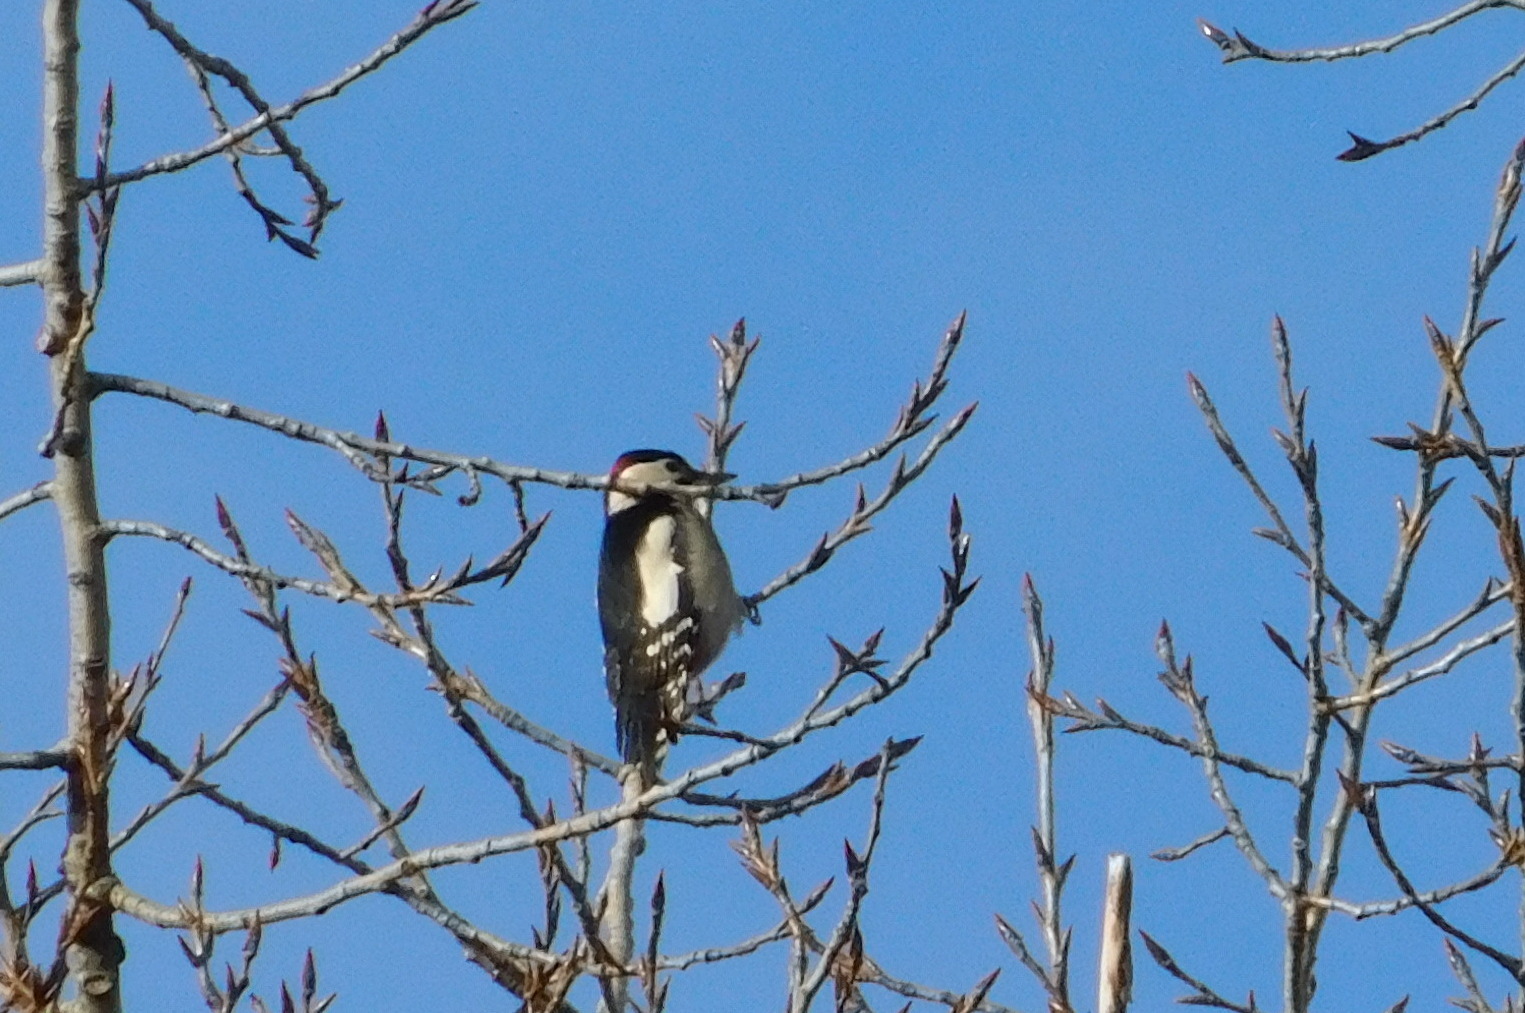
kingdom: Animalia
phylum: Chordata
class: Aves
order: Piciformes
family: Picidae
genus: Dendrocopos
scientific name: Dendrocopos major
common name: Great spotted woodpecker
